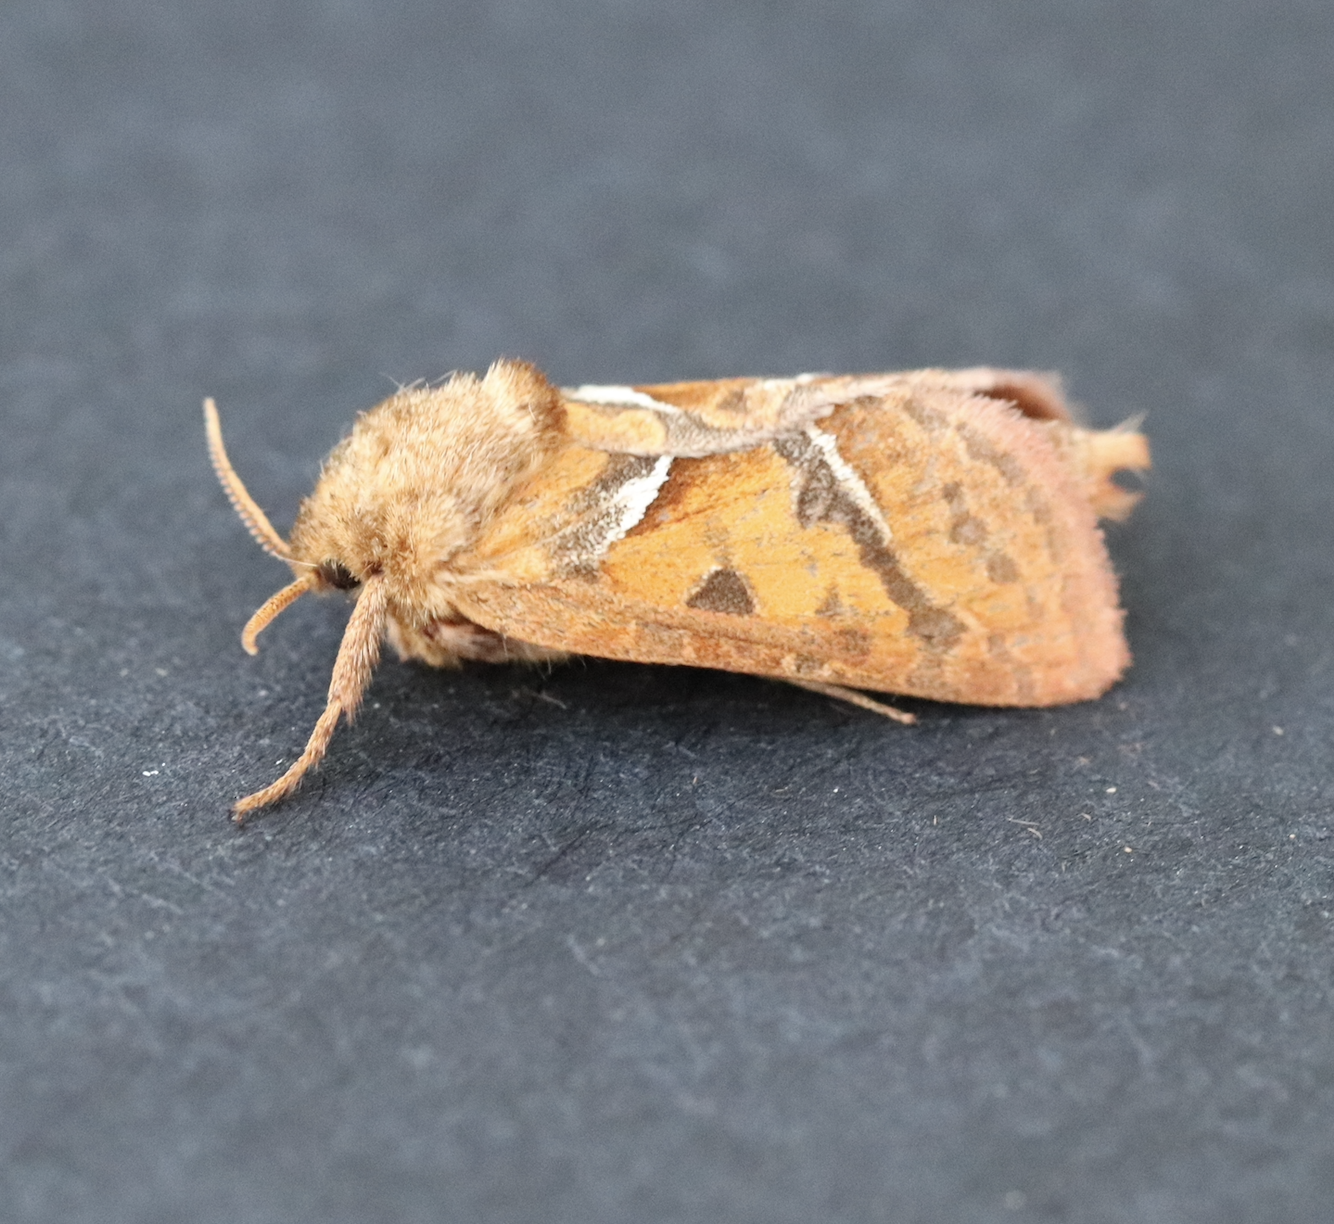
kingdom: Animalia
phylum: Arthropoda
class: Insecta
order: Lepidoptera
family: Hepialidae
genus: Triodia
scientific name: Triodia sylvina
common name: Orange swift
